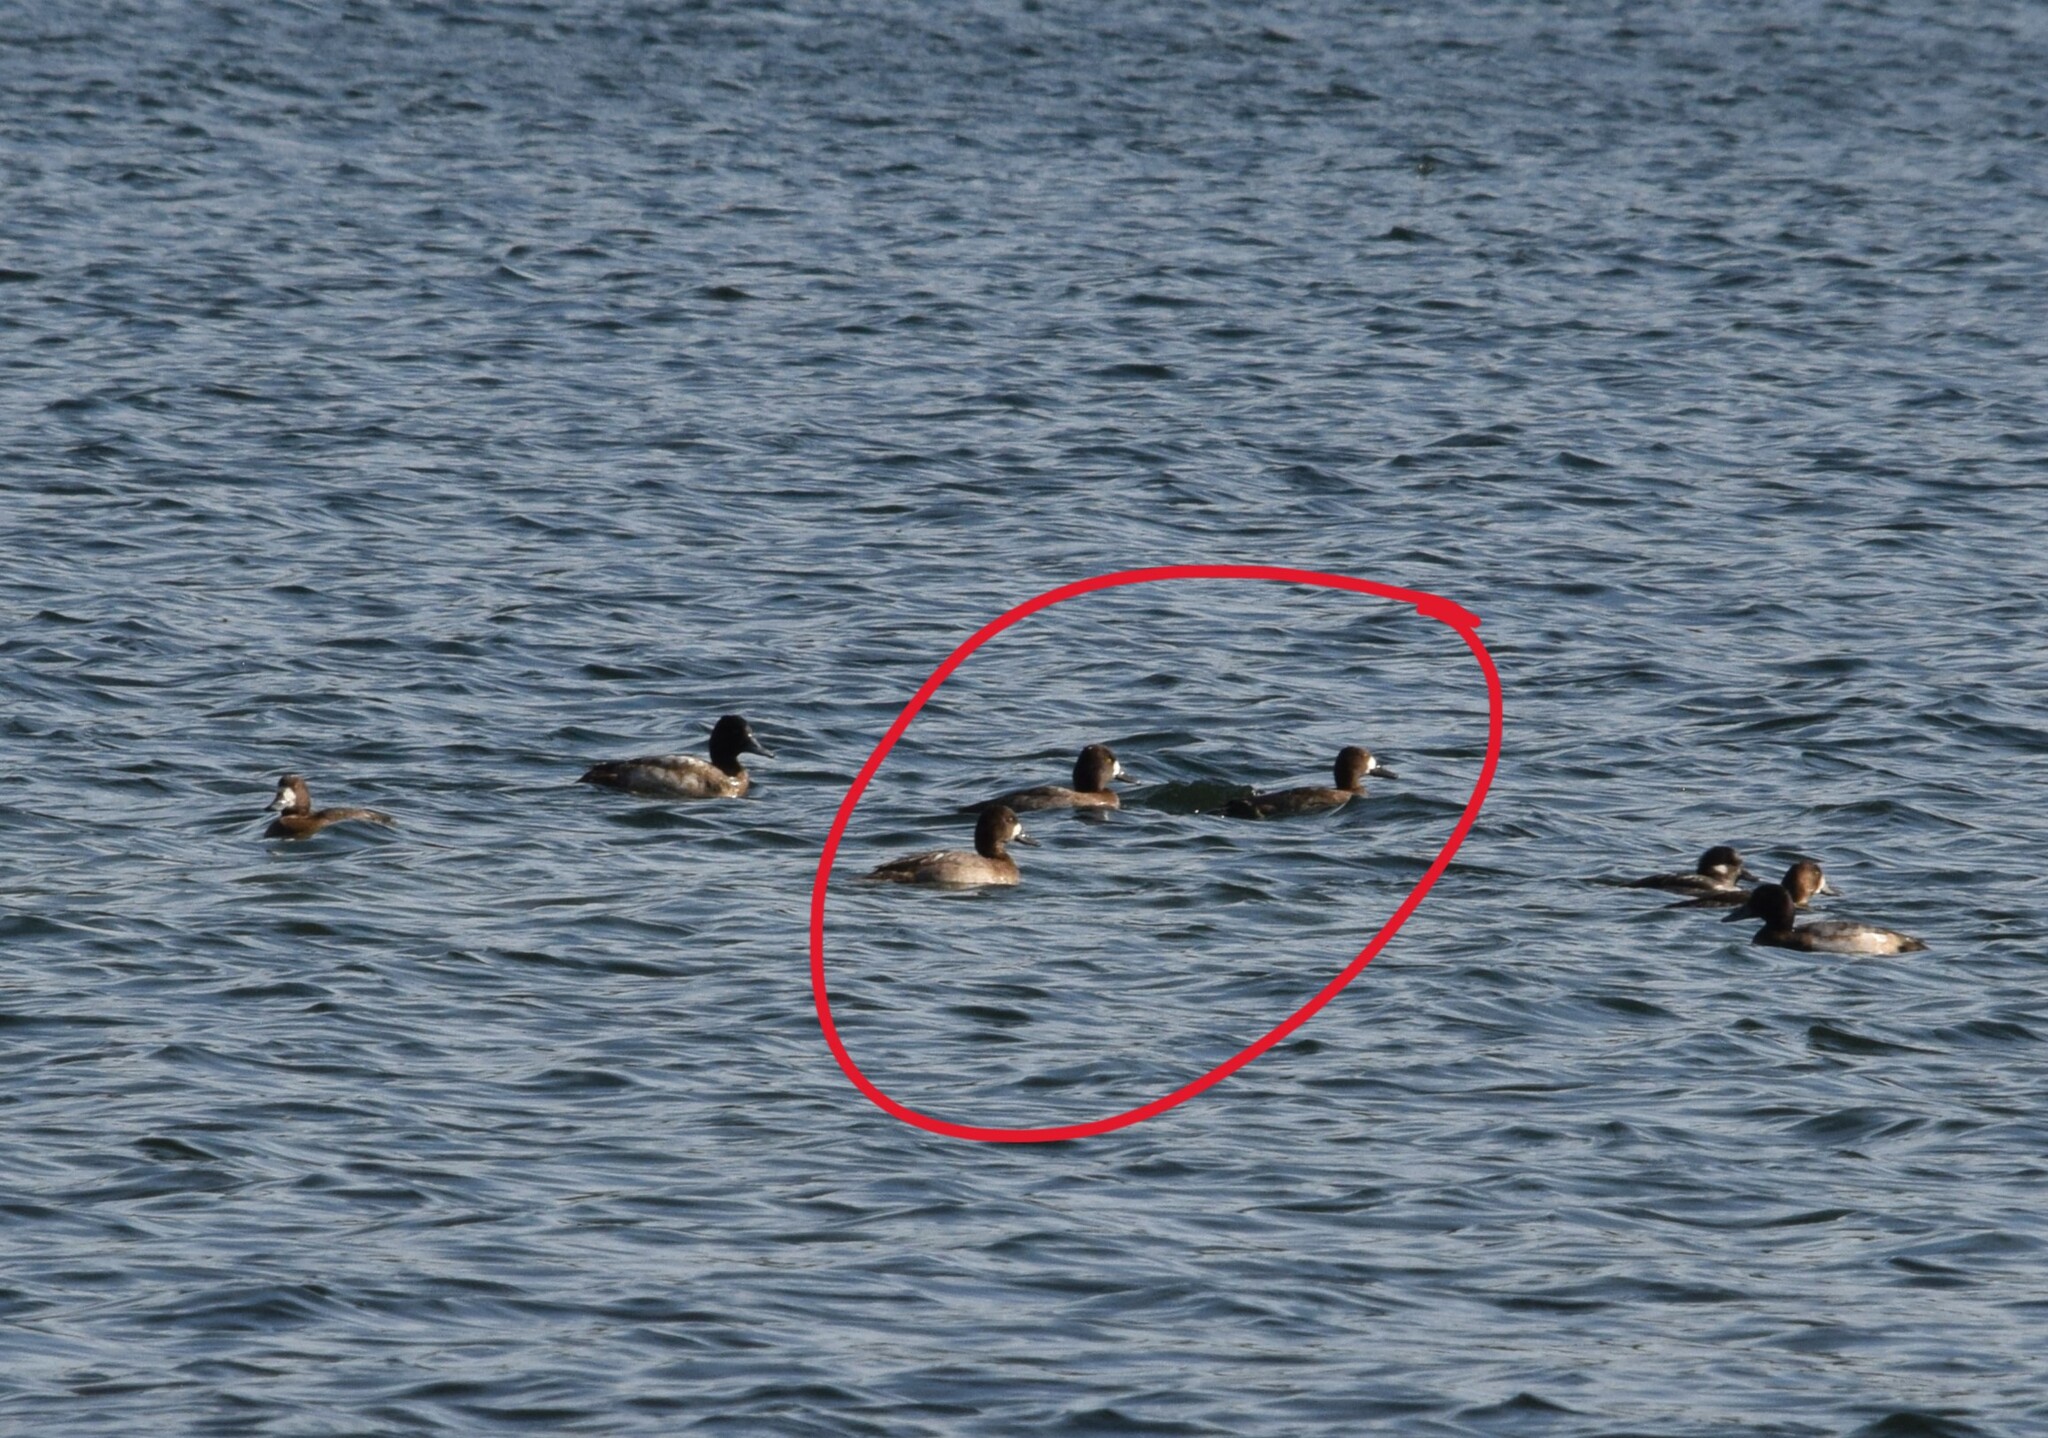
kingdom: Animalia
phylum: Chordata
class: Aves
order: Anseriformes
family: Anatidae
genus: Aythya
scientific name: Aythya affinis
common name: Lesser scaup
